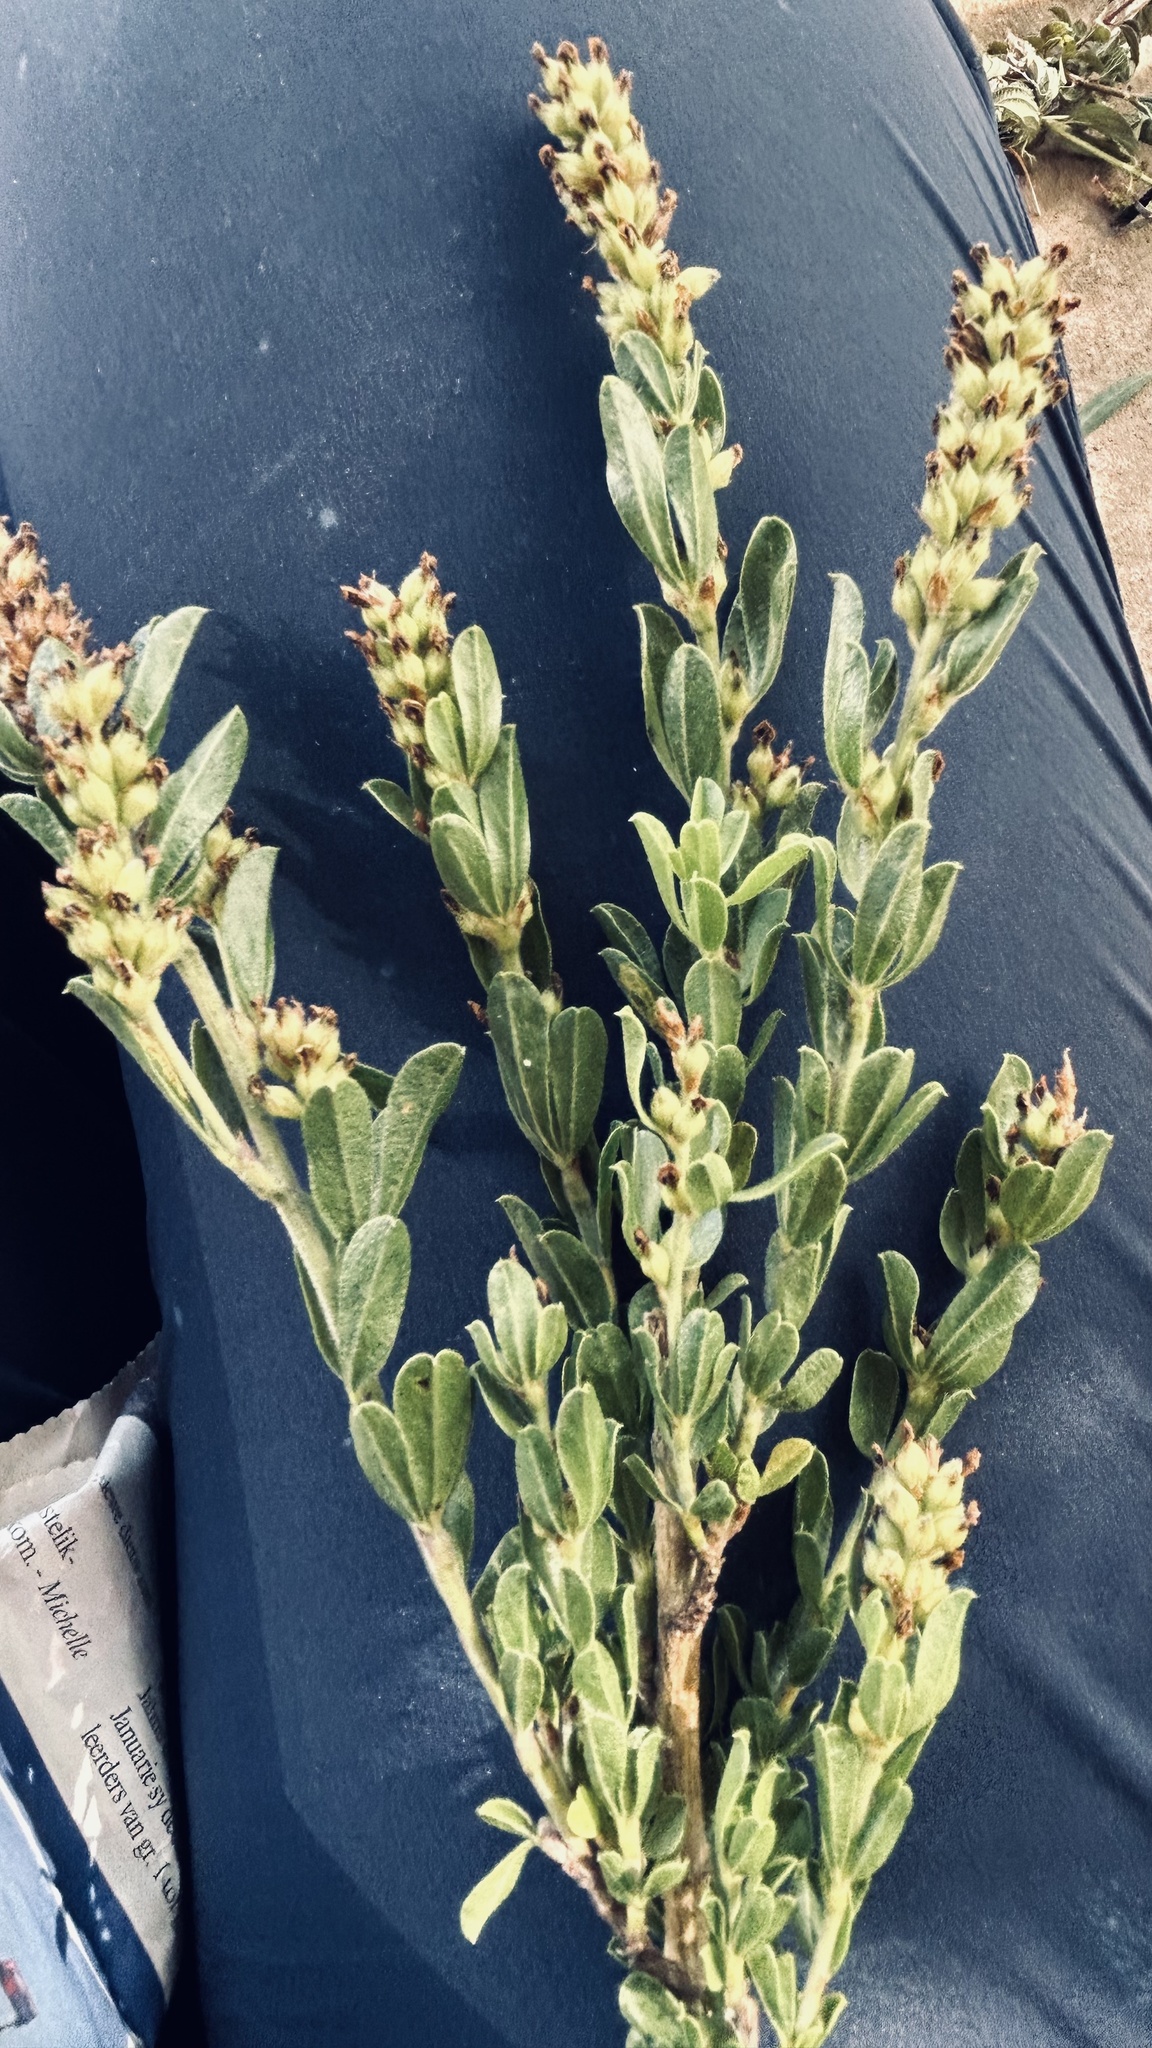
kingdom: Plantae
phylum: Tracheophyta
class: Magnoliopsida
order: Fabales
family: Fabaceae
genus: Psoralea
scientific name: Psoralea spicata
